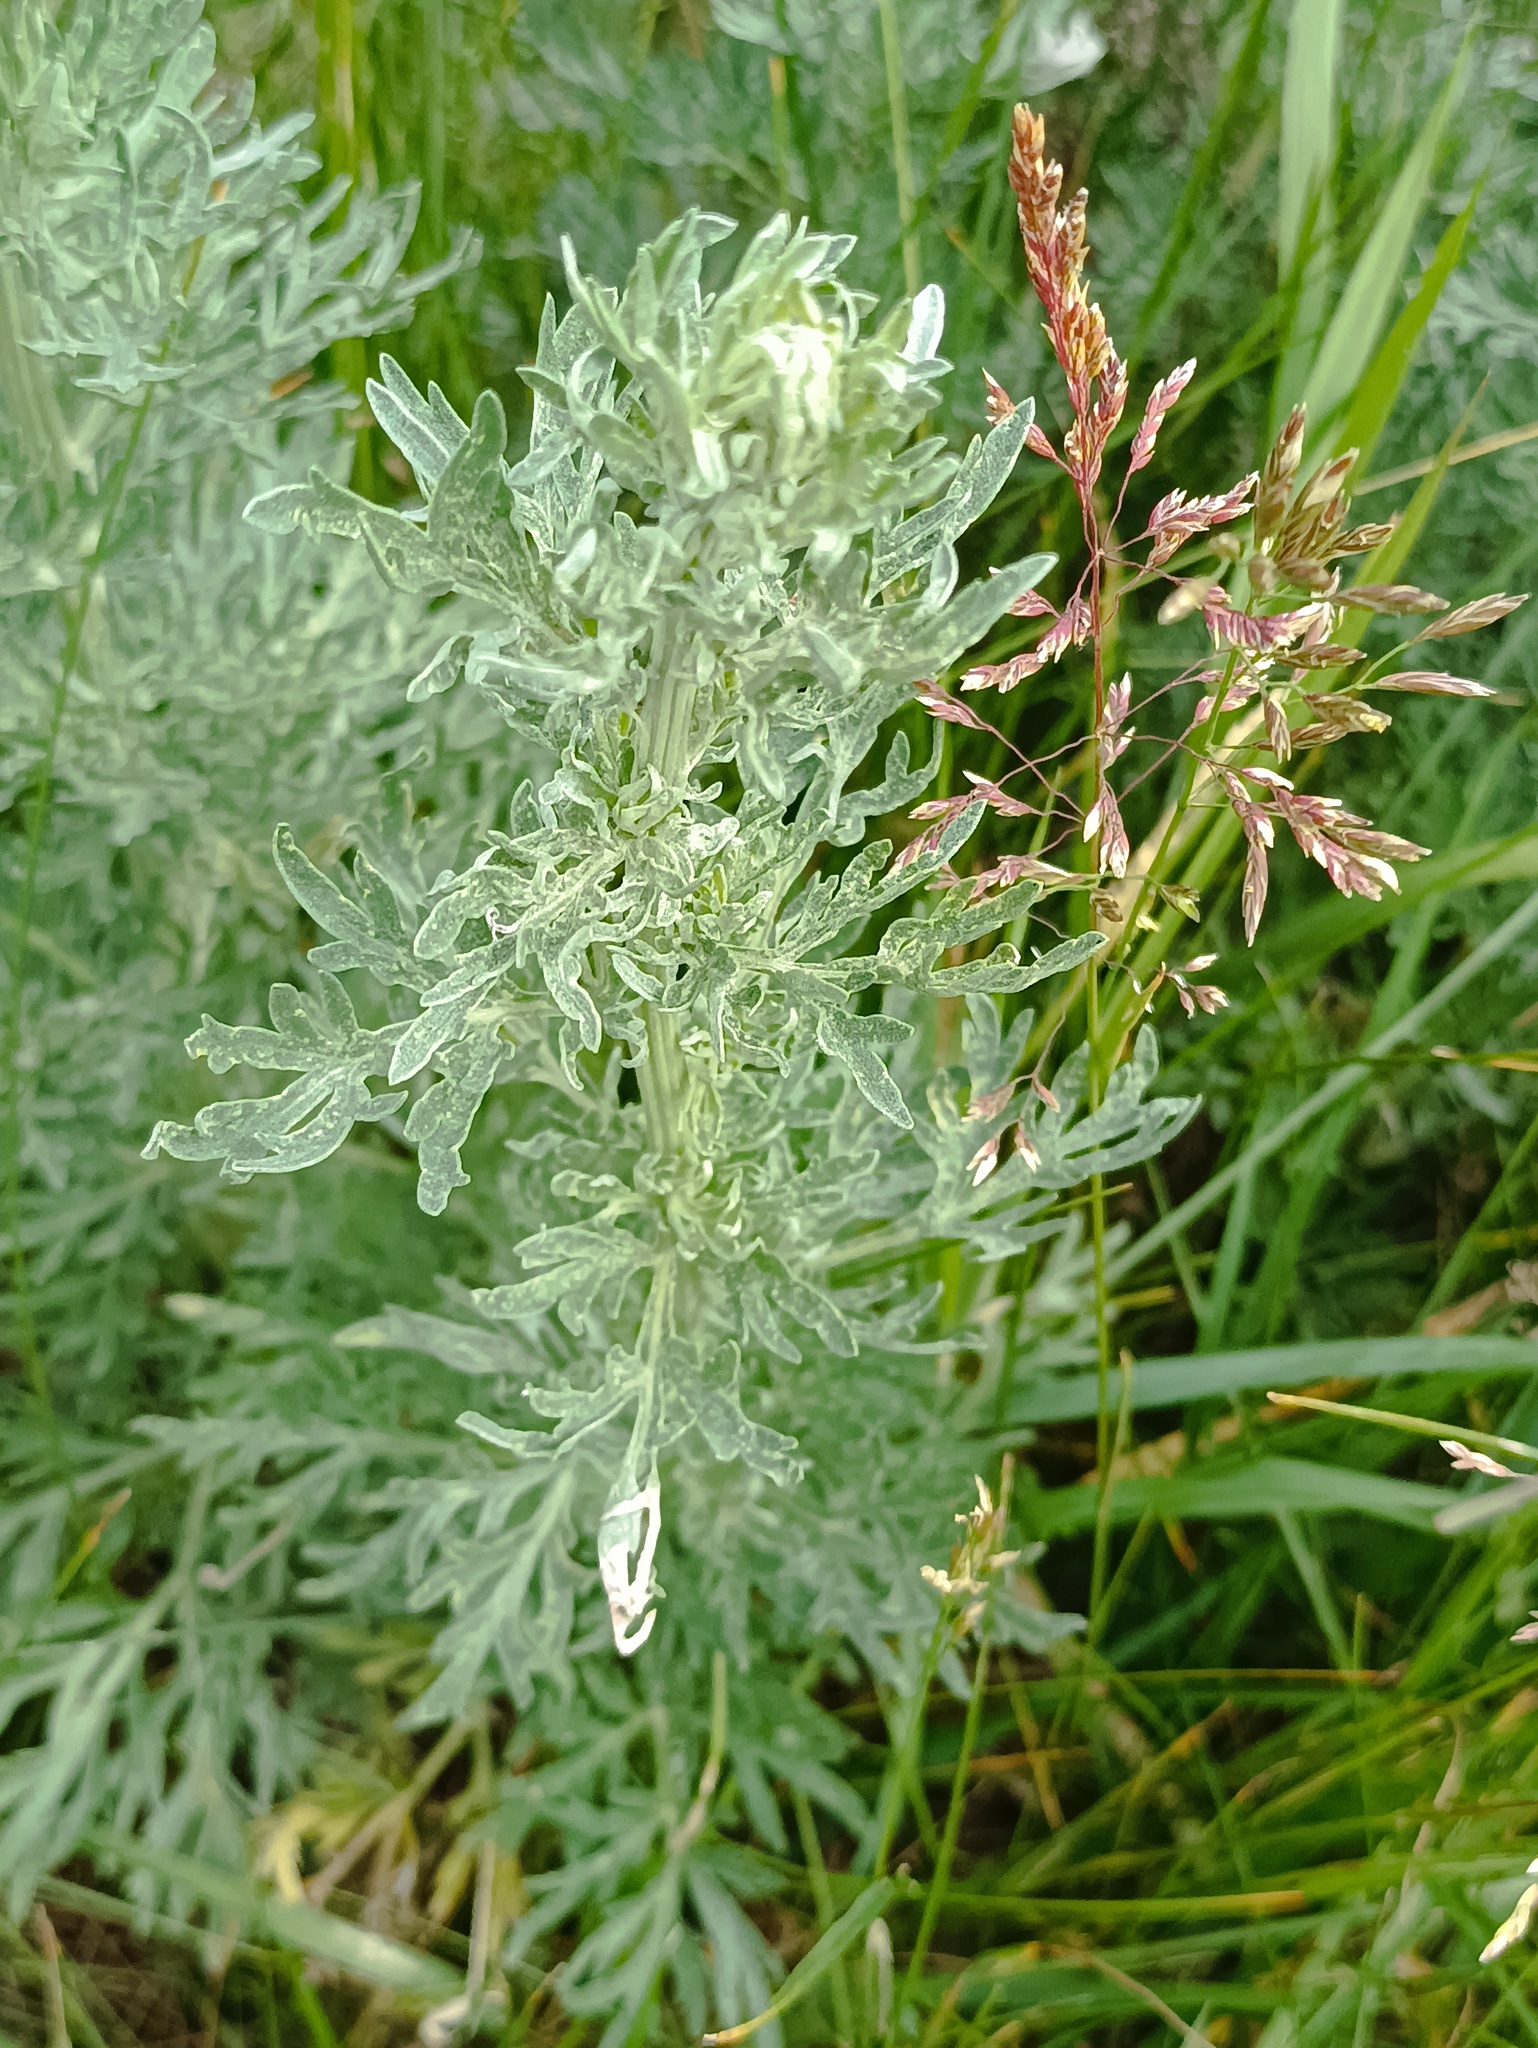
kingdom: Plantae
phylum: Tracheophyta
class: Magnoliopsida
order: Asterales
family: Asteraceae
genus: Artemisia
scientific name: Artemisia absinthium
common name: Wormwood
